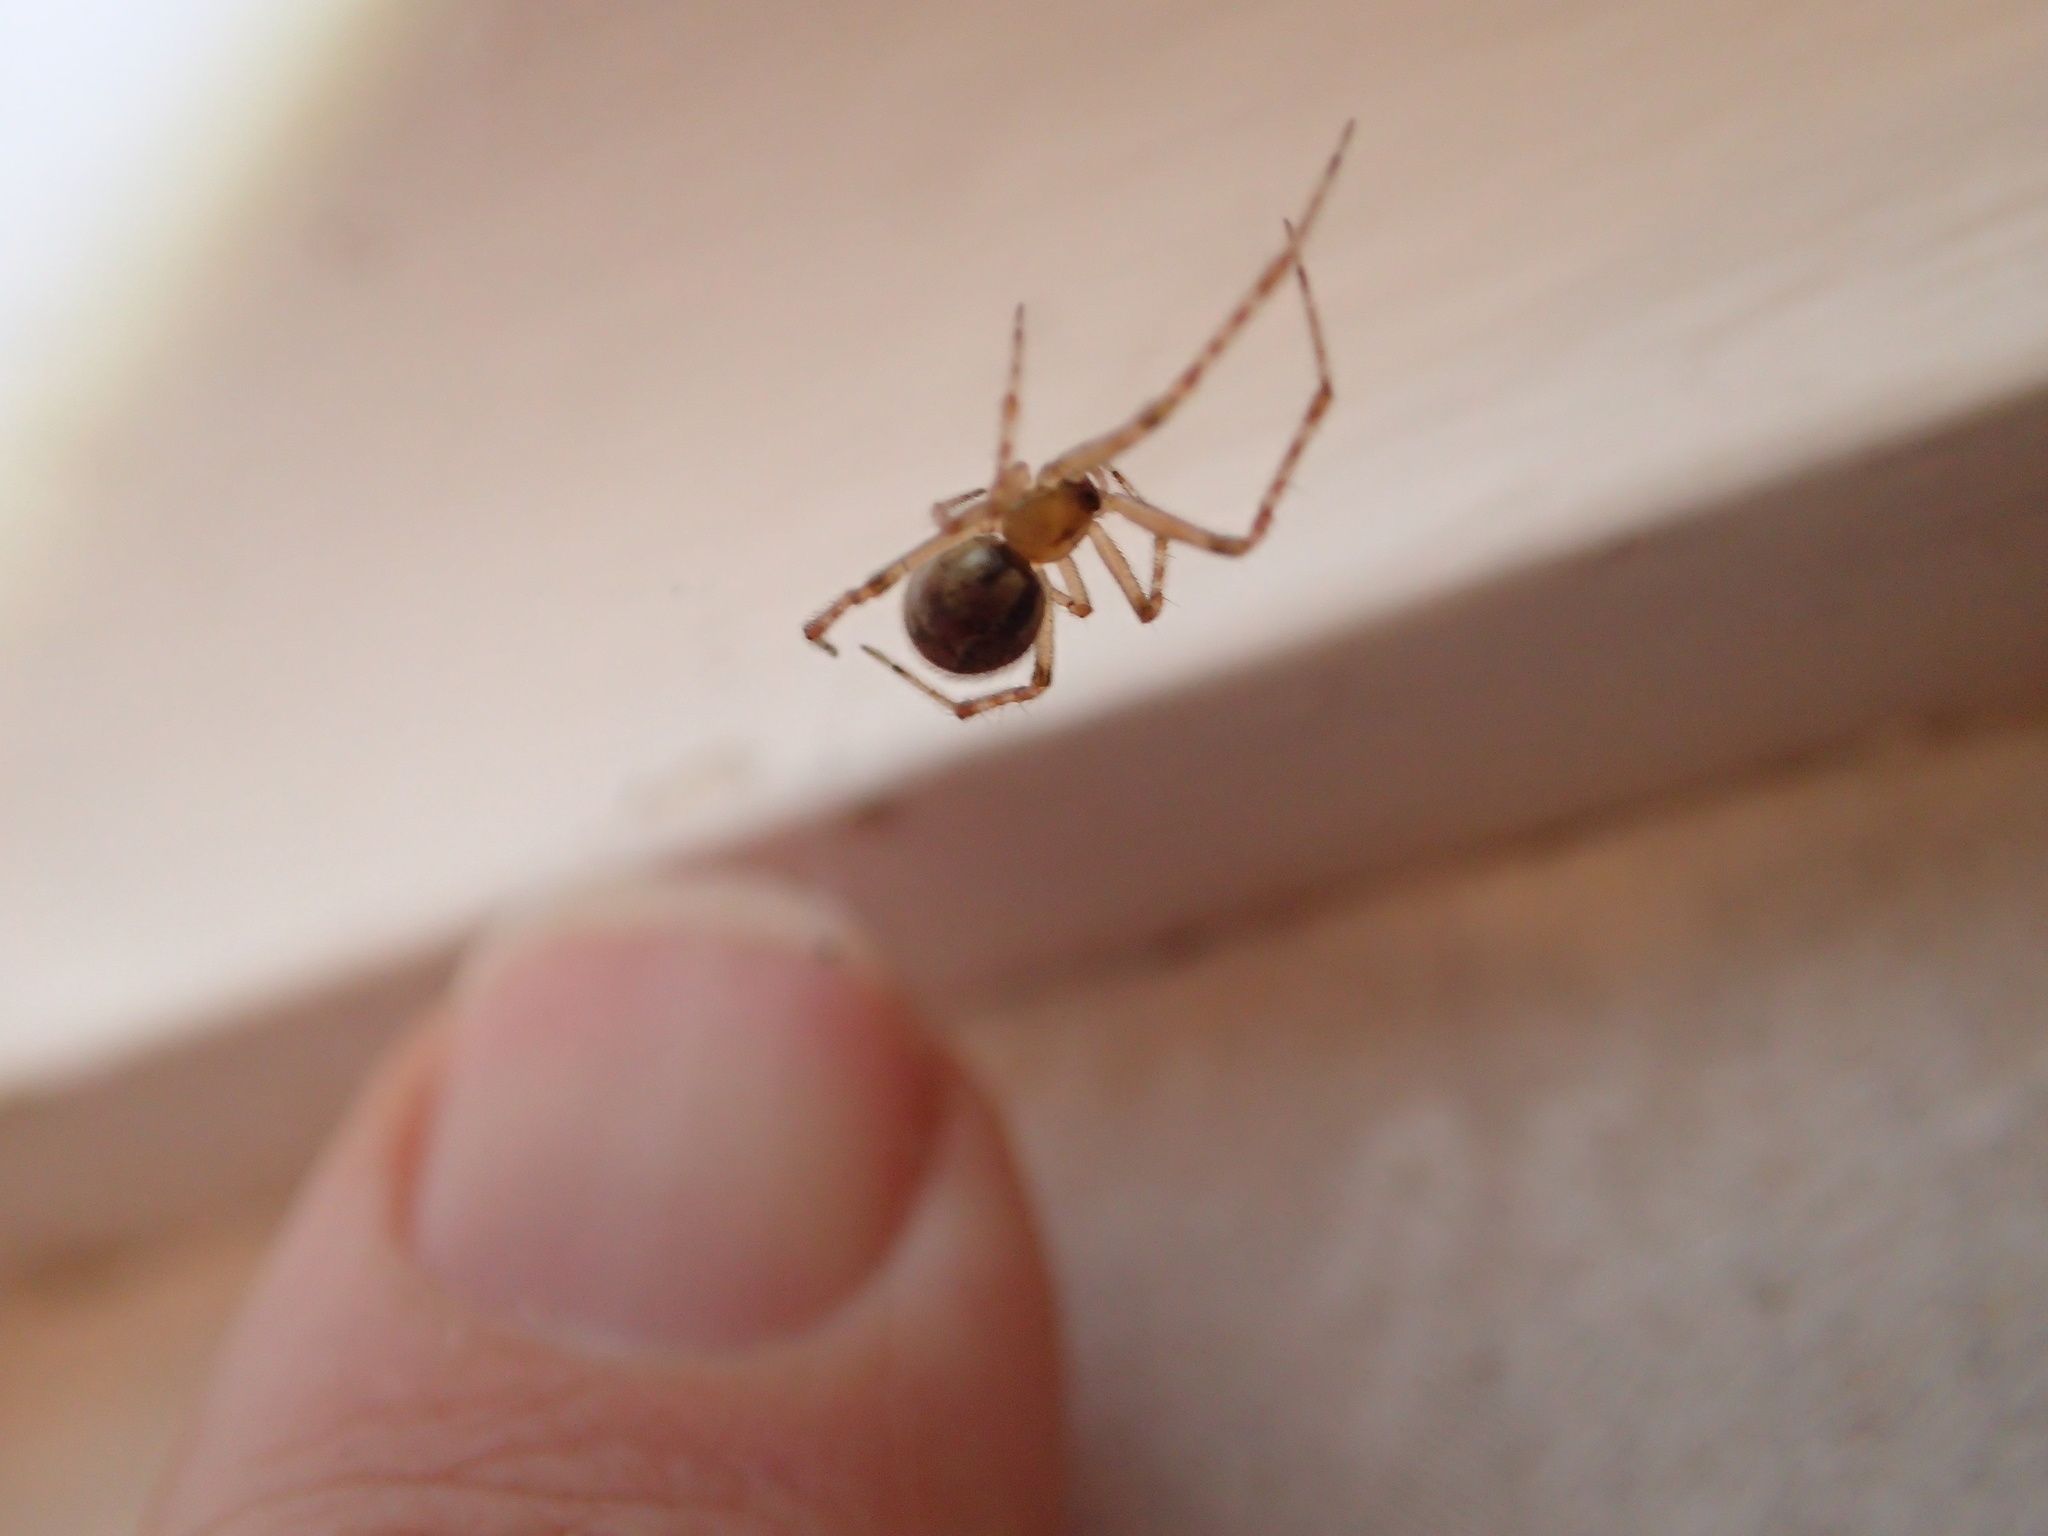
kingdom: Animalia
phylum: Arthropoda
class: Arachnida
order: Araneae
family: Theridiidae
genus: Cryptachaea
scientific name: Cryptachaea veruculata
